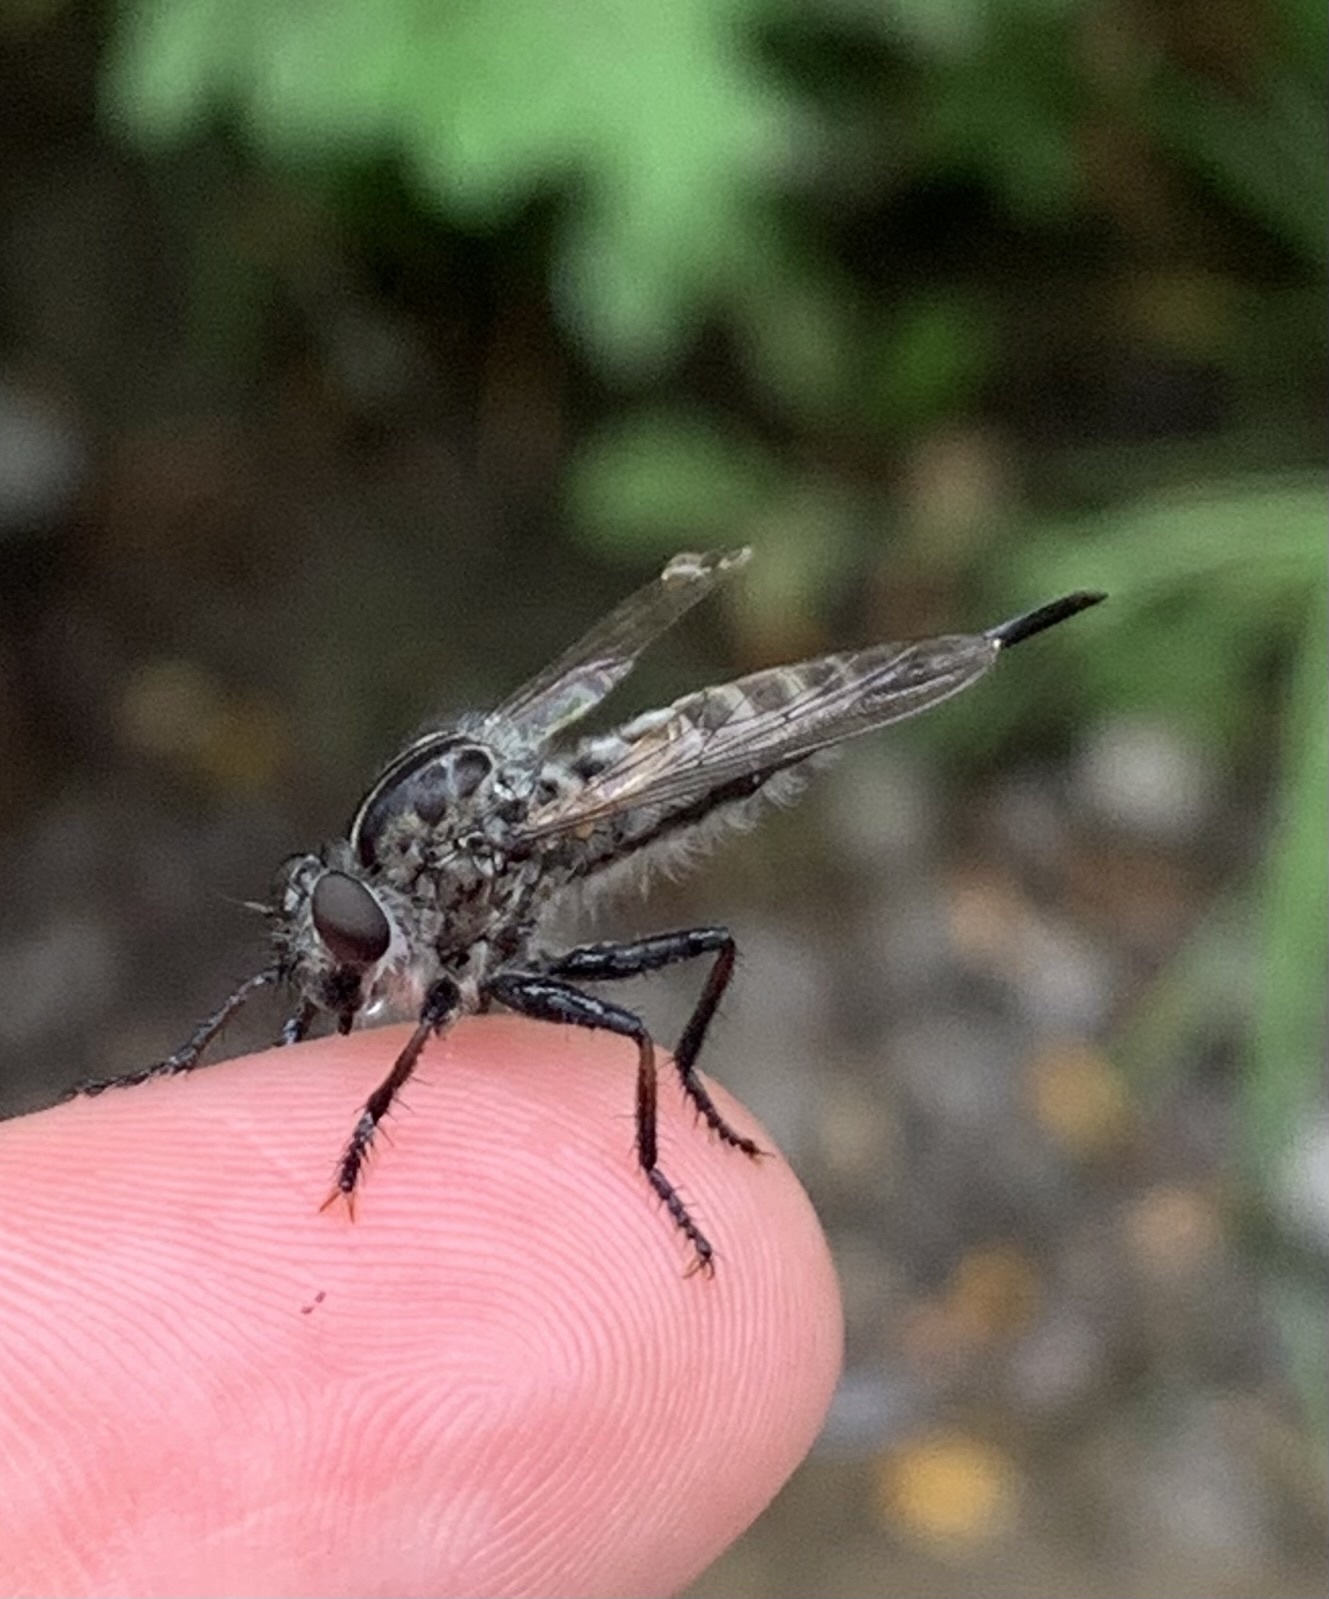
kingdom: Animalia
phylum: Arthropoda
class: Insecta
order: Diptera
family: Asilidae
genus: Efferia
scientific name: Efferia aestuans
